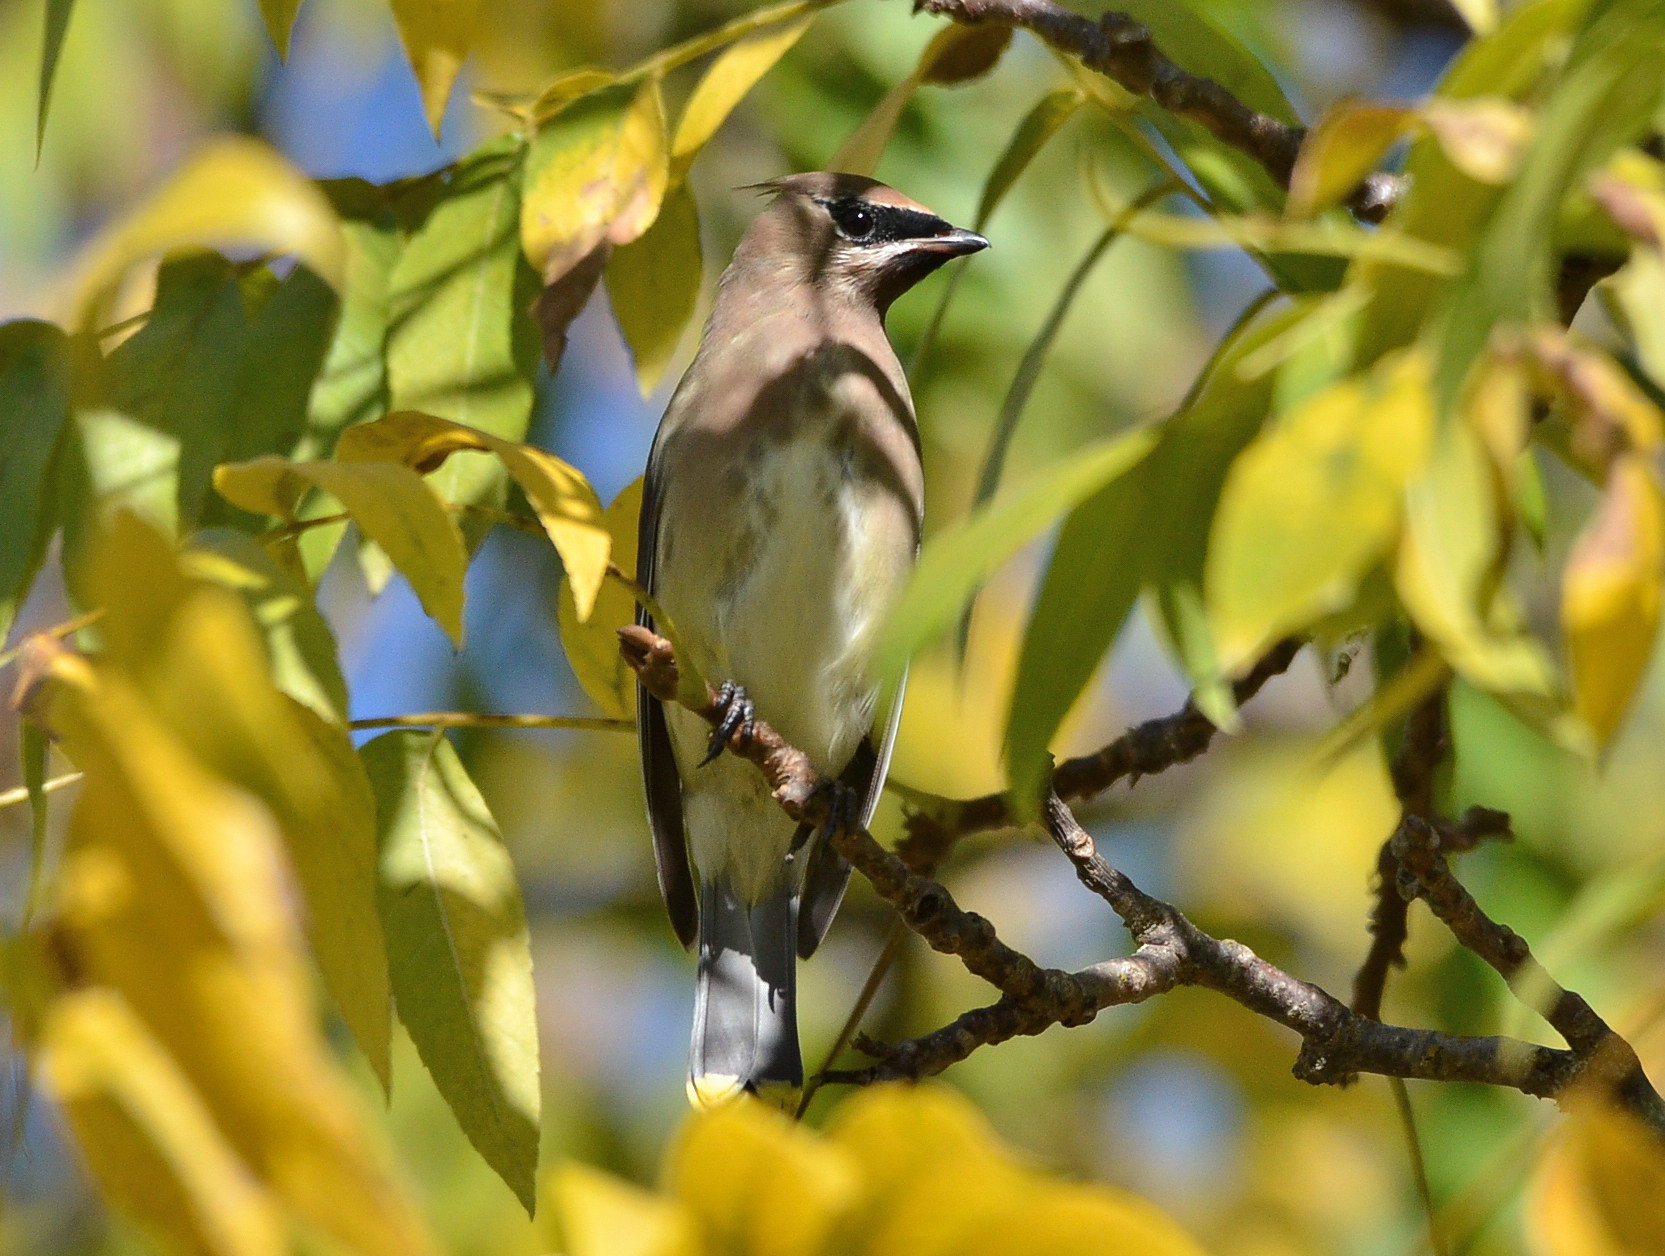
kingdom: Animalia
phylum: Chordata
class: Aves
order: Passeriformes
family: Bombycillidae
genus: Bombycilla
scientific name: Bombycilla cedrorum
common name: Cedar waxwing
